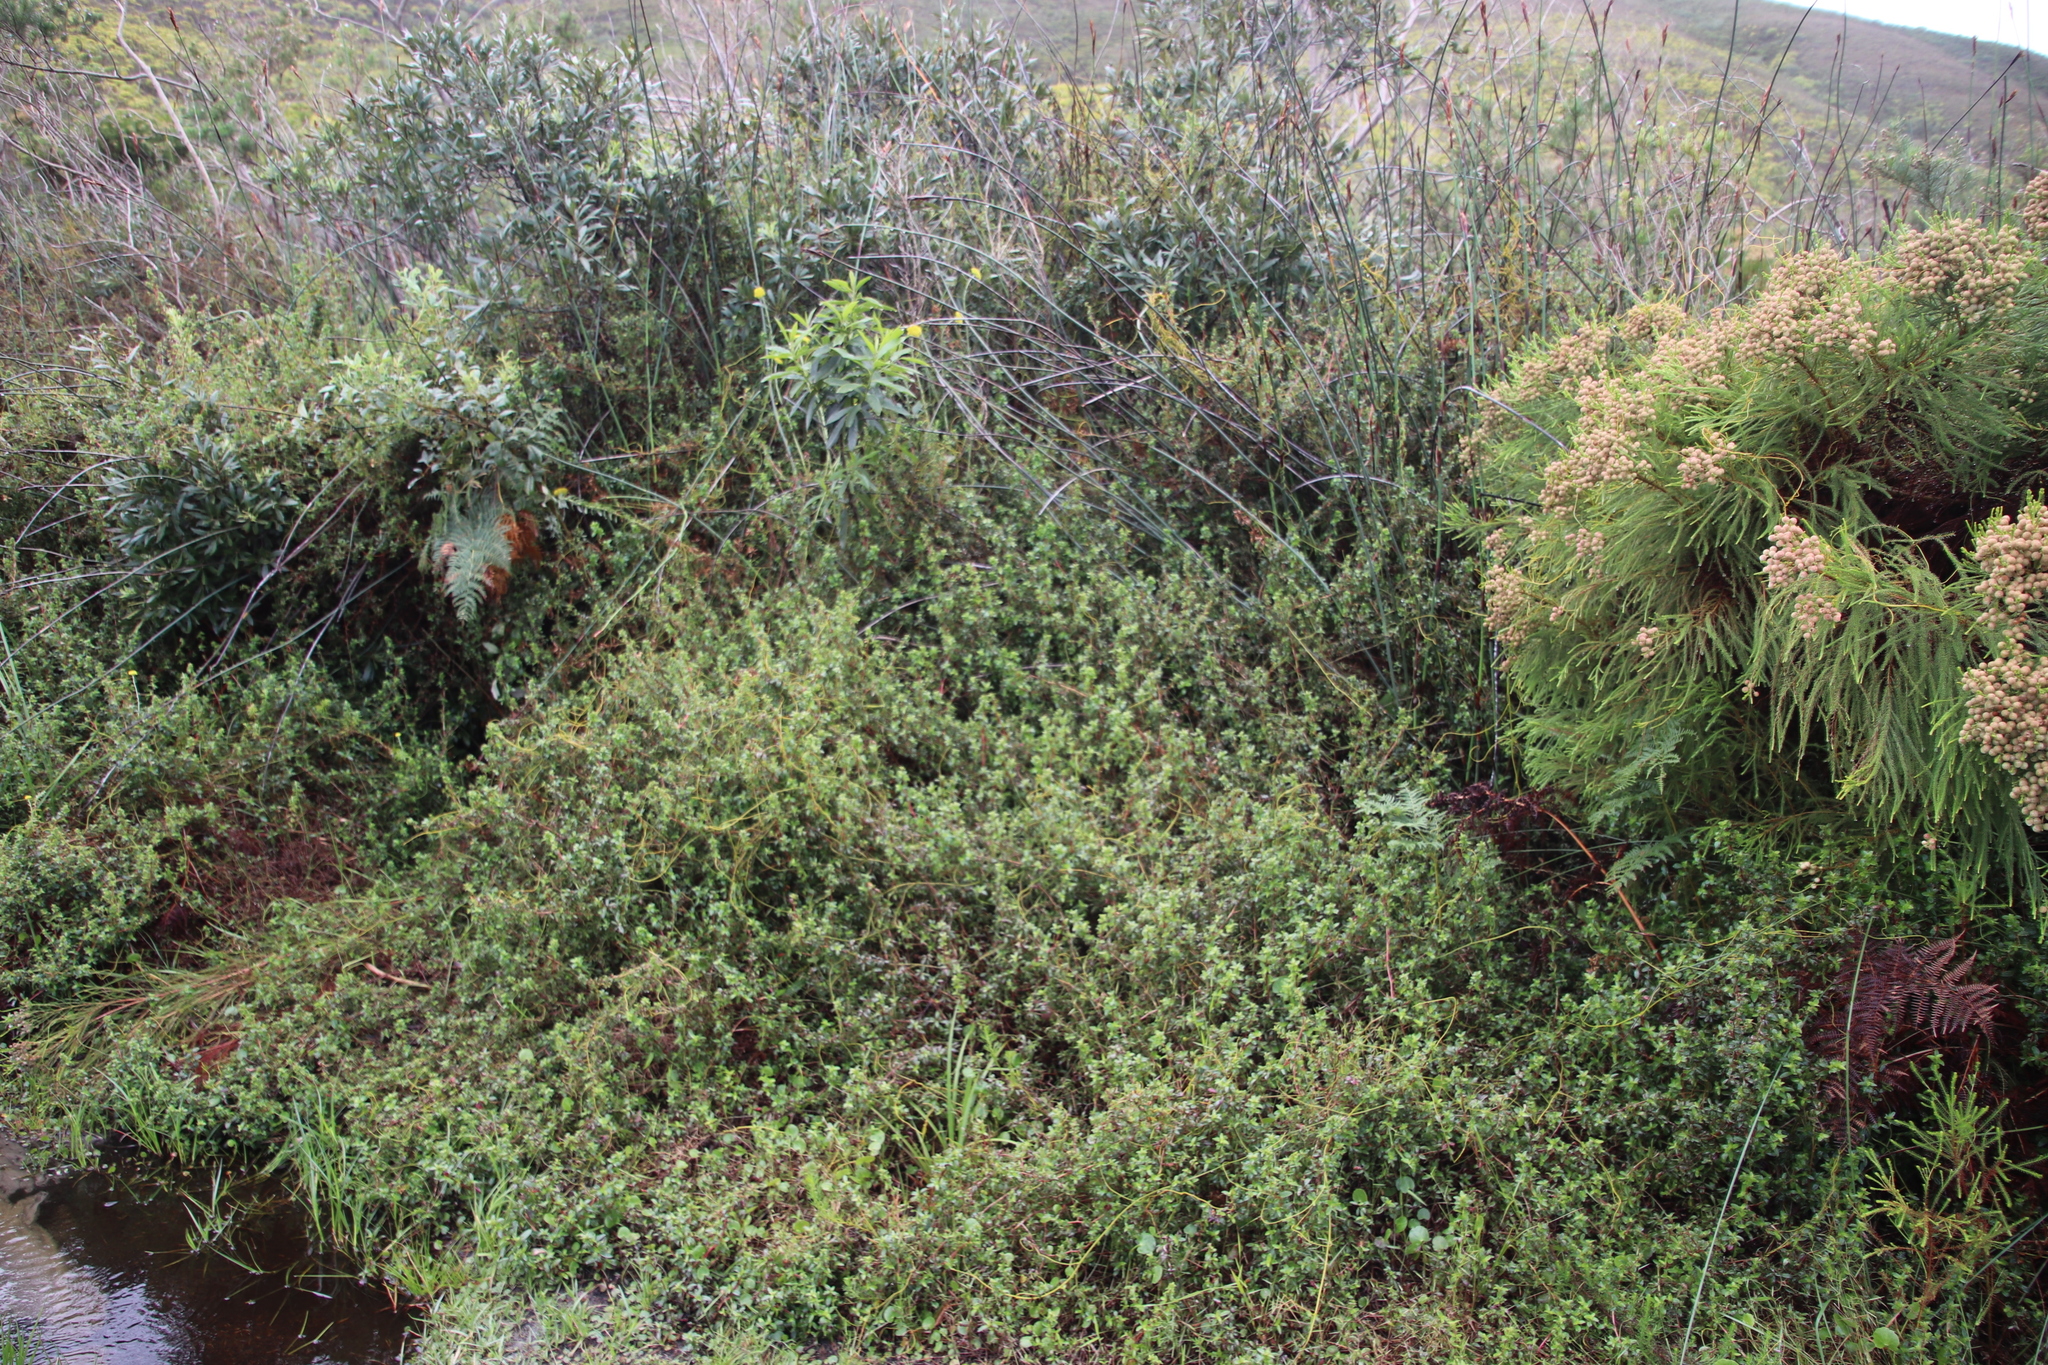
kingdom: Plantae
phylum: Tracheophyta
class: Magnoliopsida
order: Rosales
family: Rosaceae
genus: Cliffortia
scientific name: Cliffortia ferruginea
